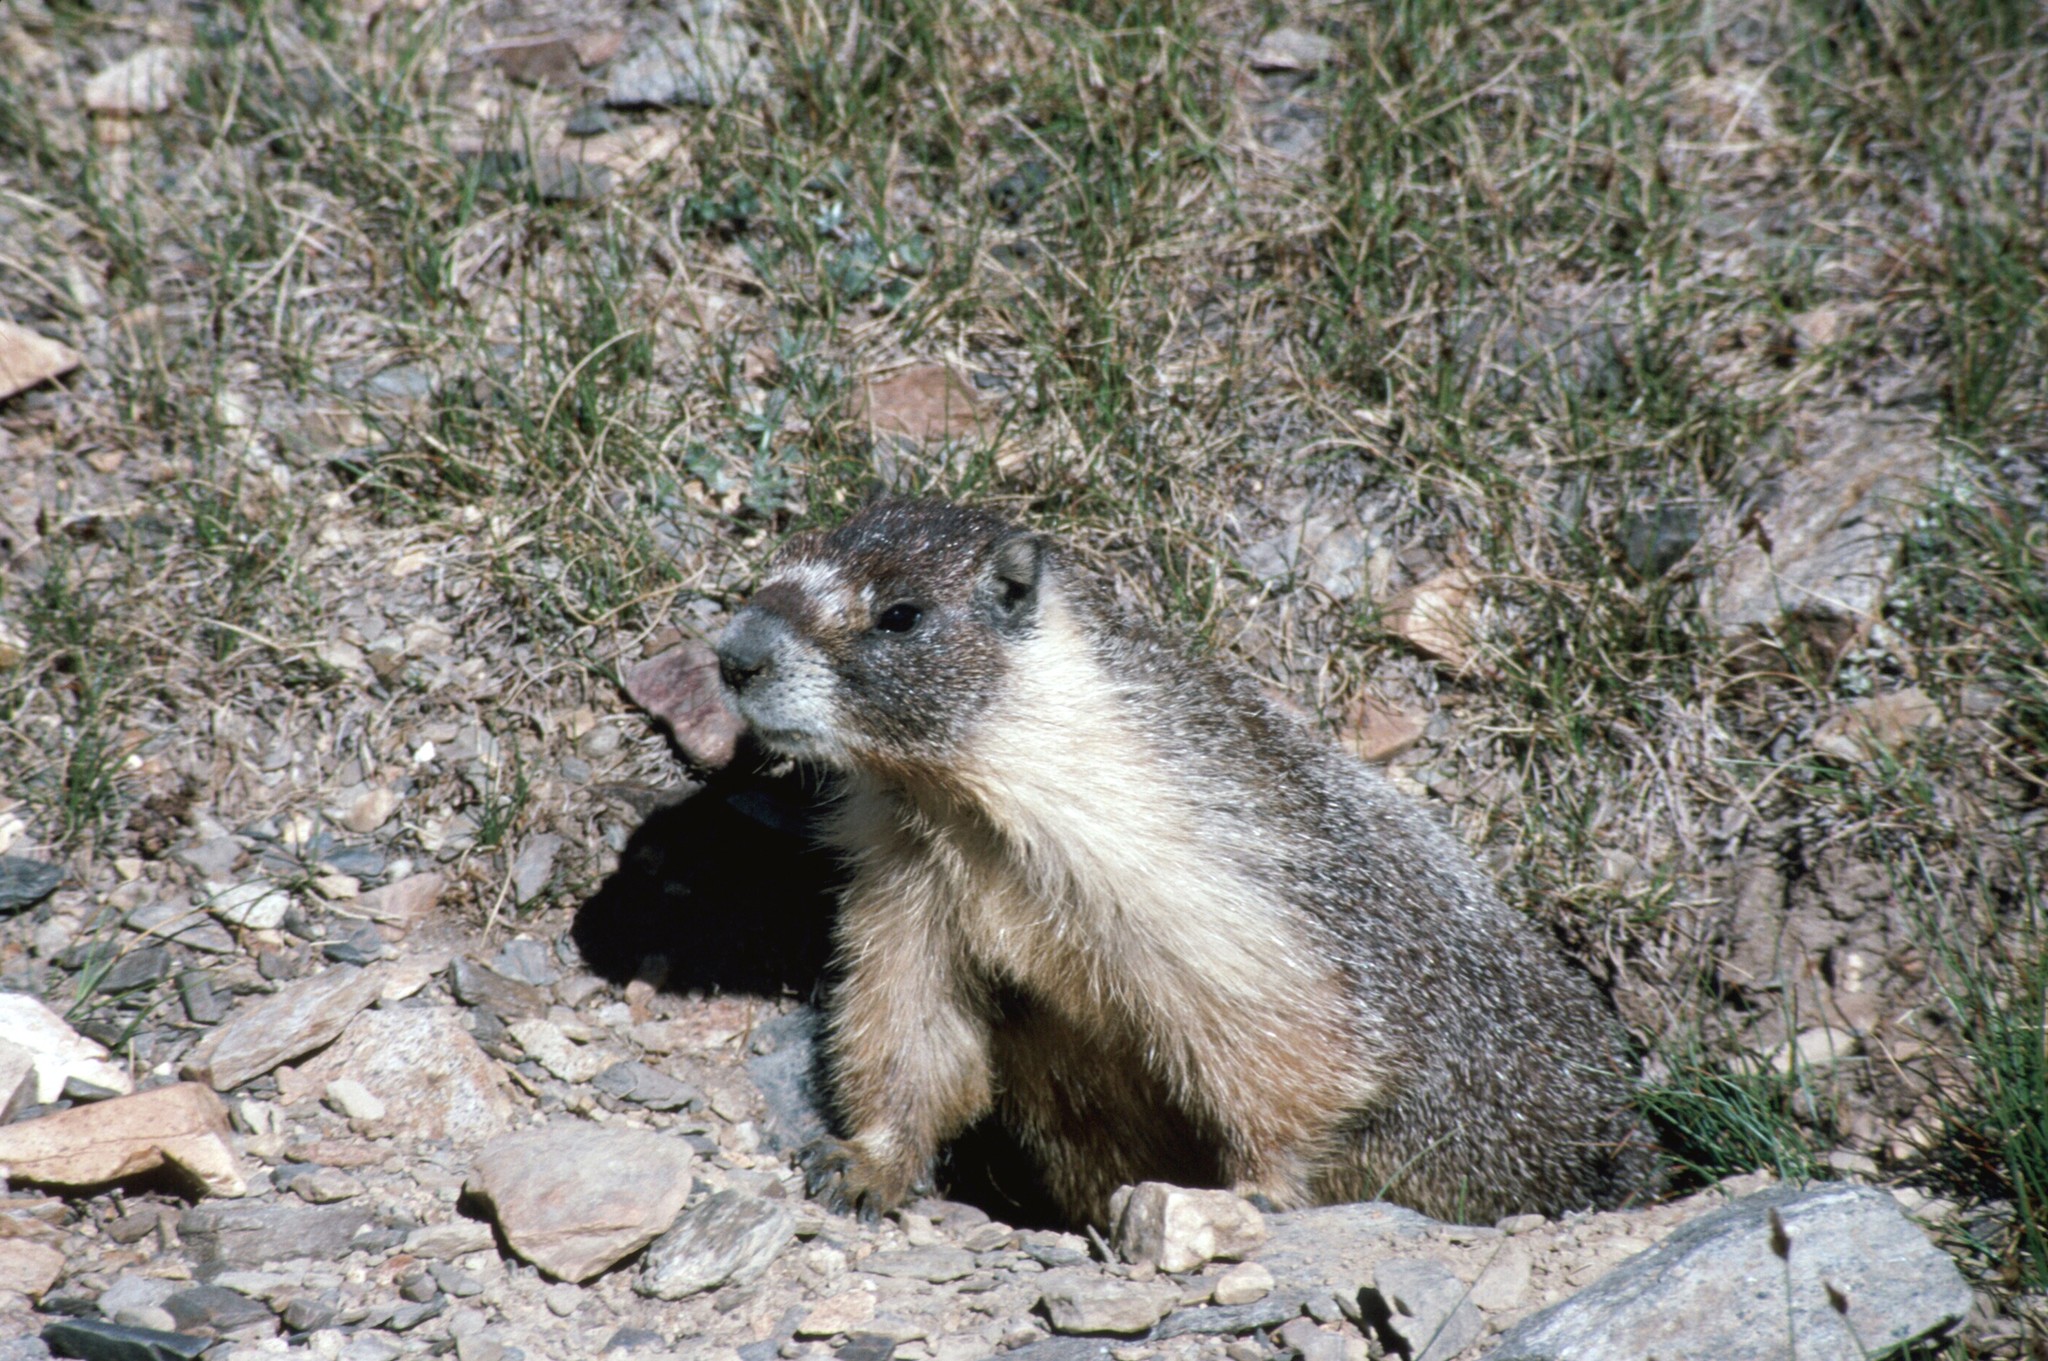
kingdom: Animalia
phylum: Chordata
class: Mammalia
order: Rodentia
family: Sciuridae
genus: Marmota
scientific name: Marmota flaviventris
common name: Yellow-bellied marmot
